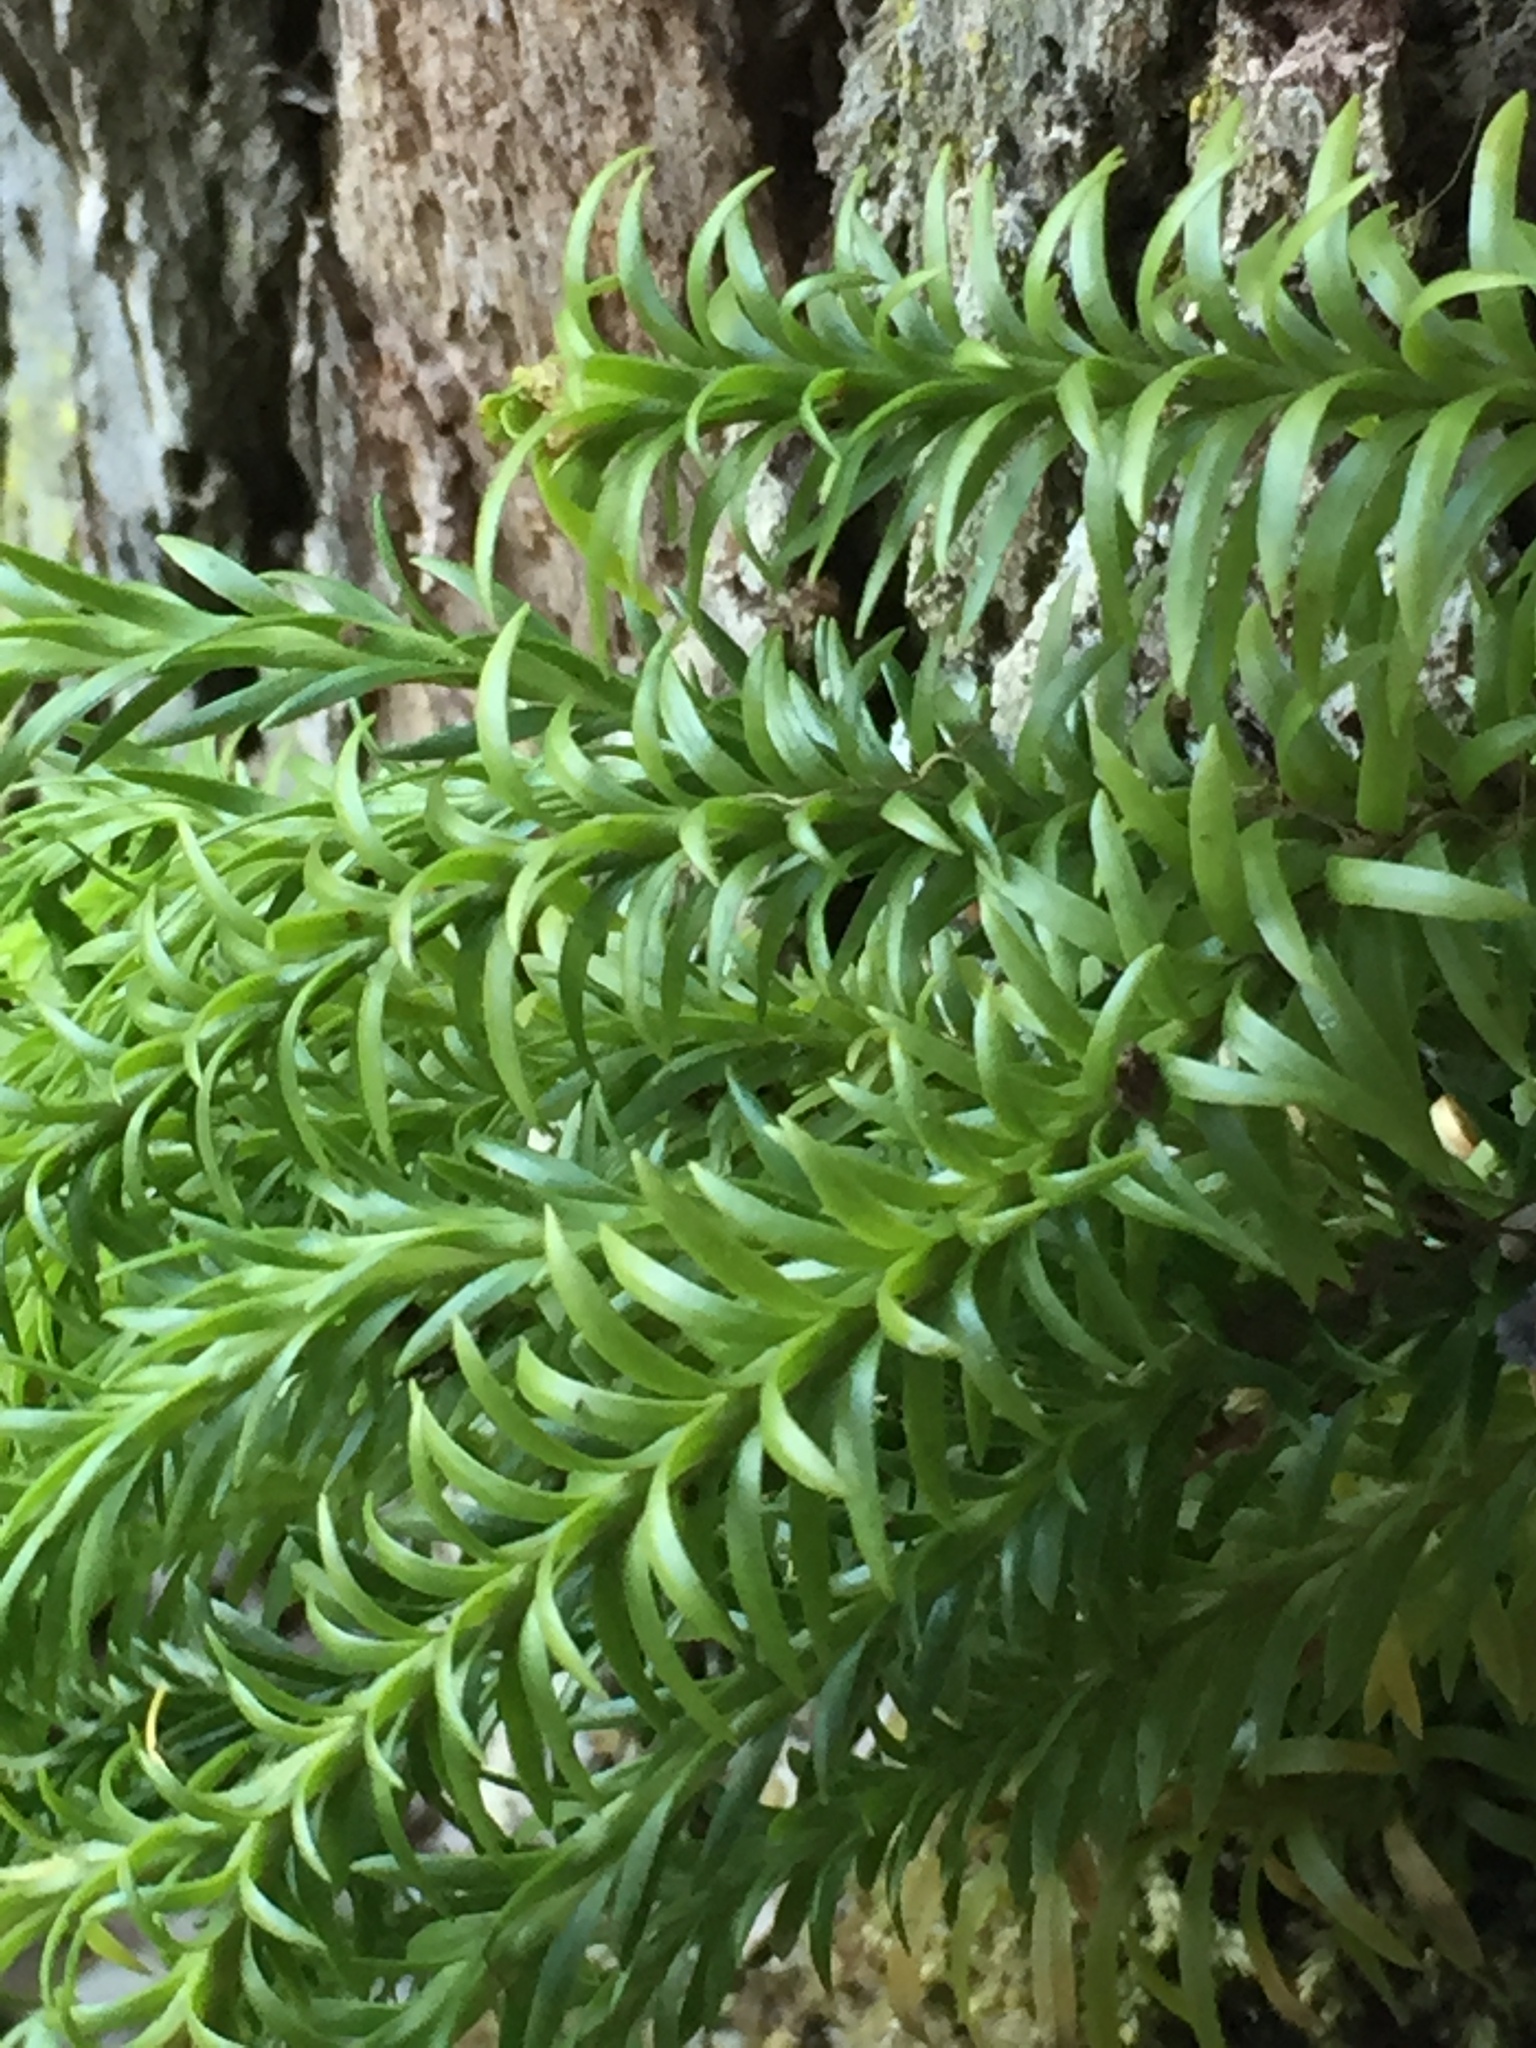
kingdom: Plantae
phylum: Tracheophyta
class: Lycopodiopsida
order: Lycopodiales
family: Lycopodiaceae
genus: Phlegmariurus
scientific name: Phlegmariurus billardierei
